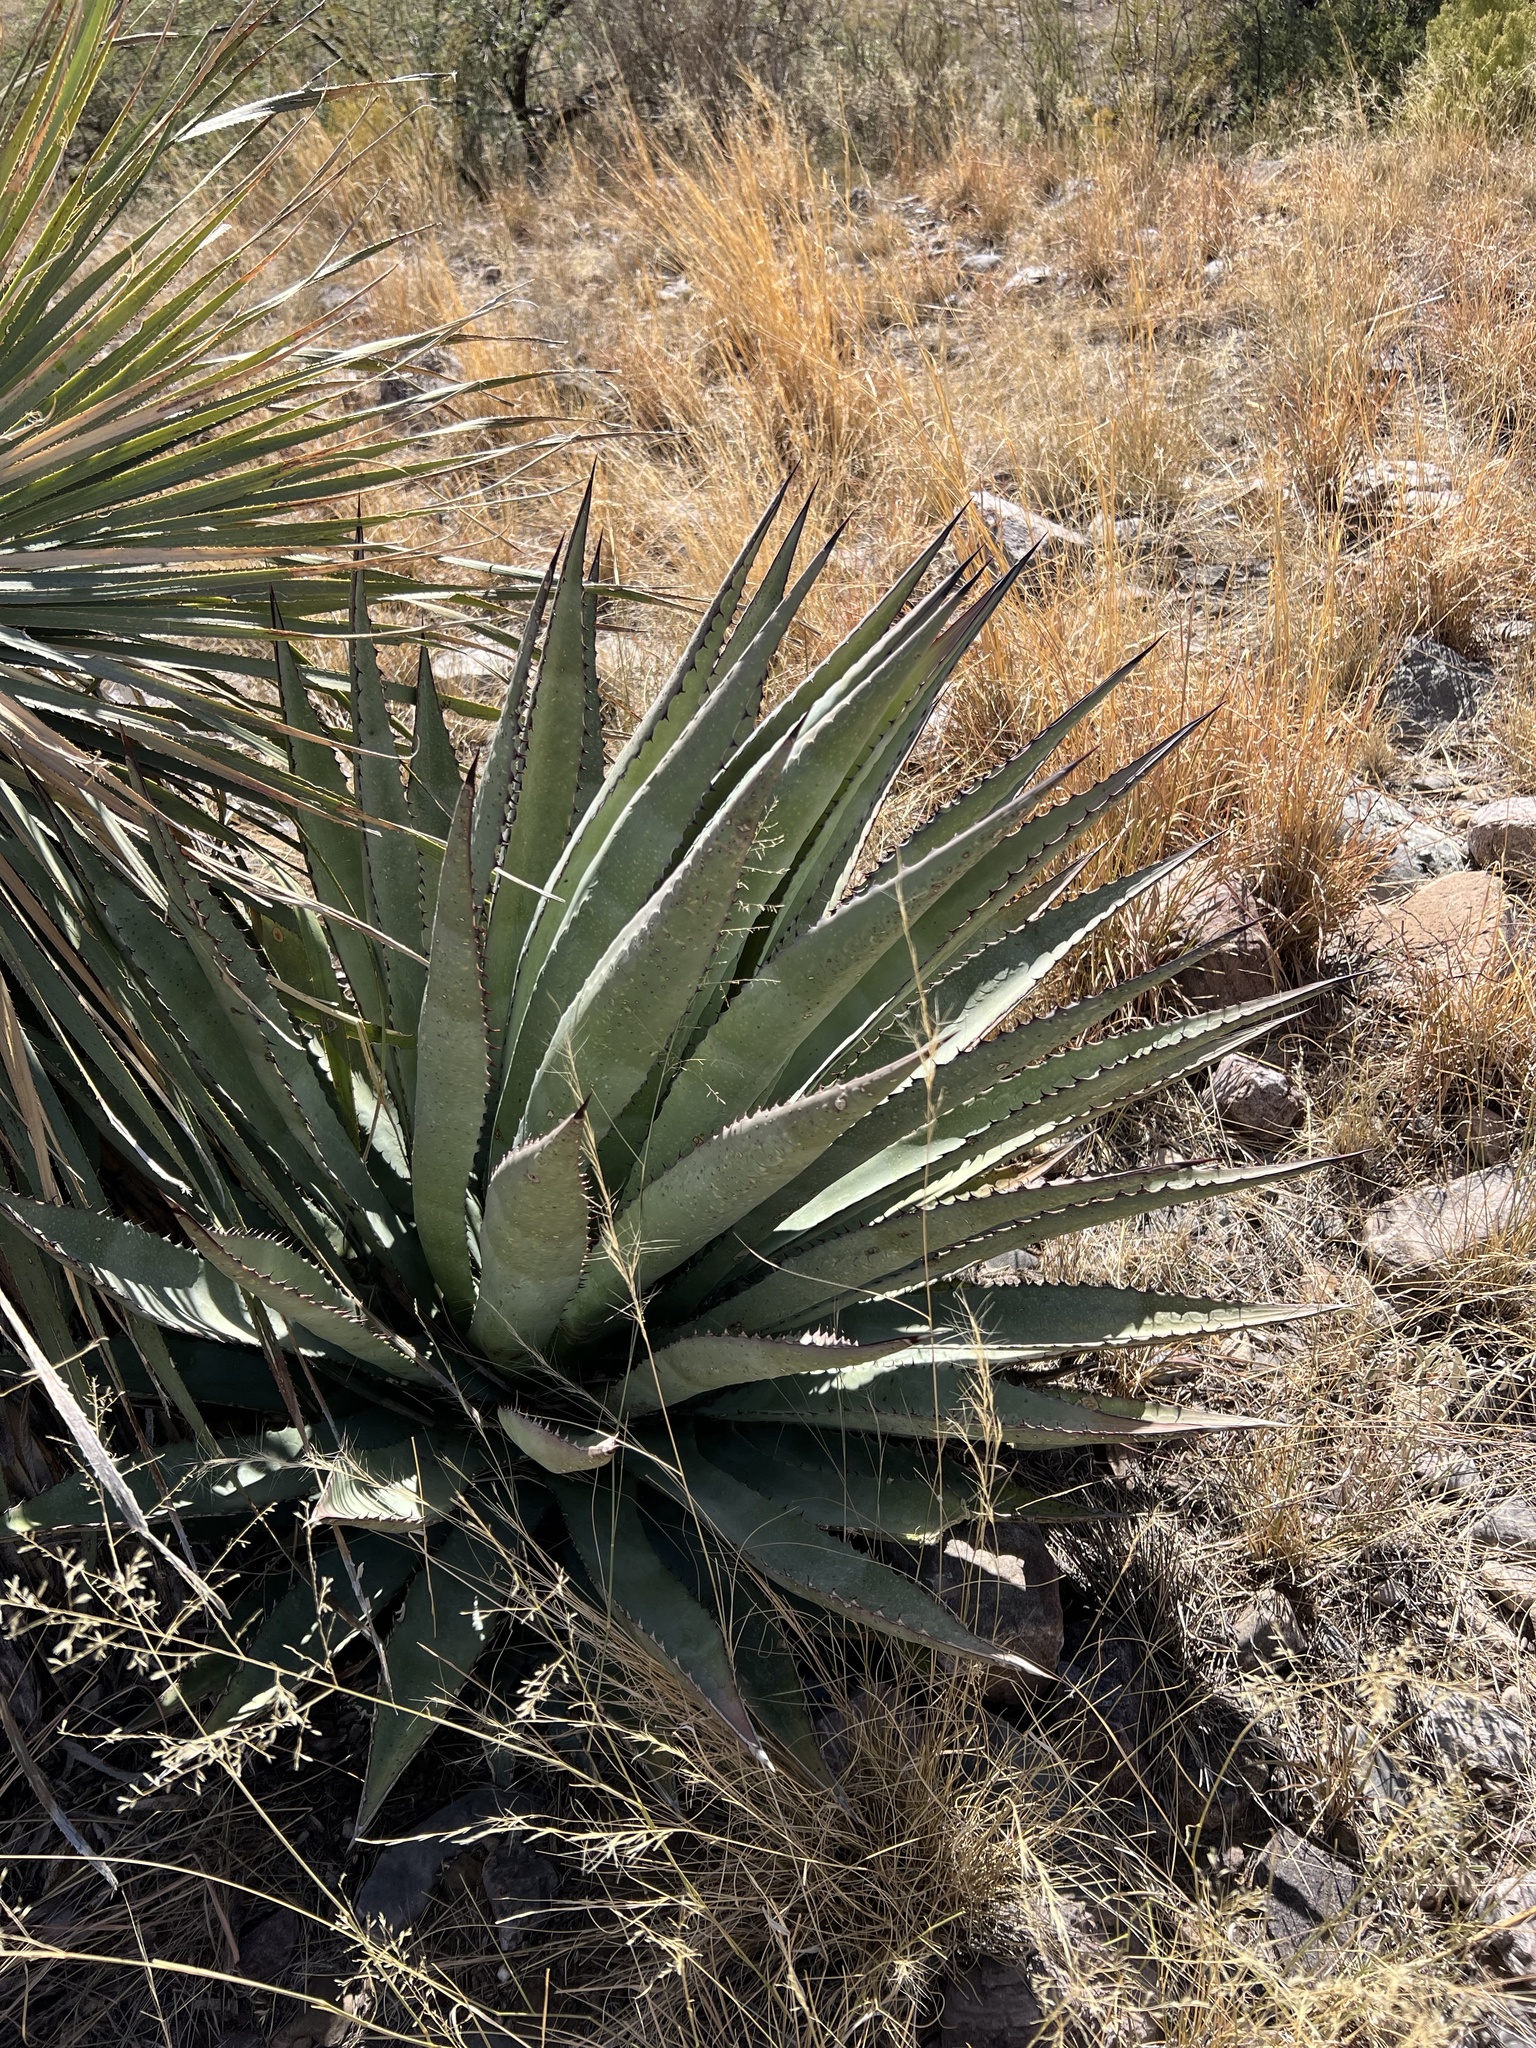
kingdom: Plantae
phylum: Tracheophyta
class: Liliopsida
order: Asparagales
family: Asparagaceae
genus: Agave
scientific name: Agave palmeri
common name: Palmer agave
